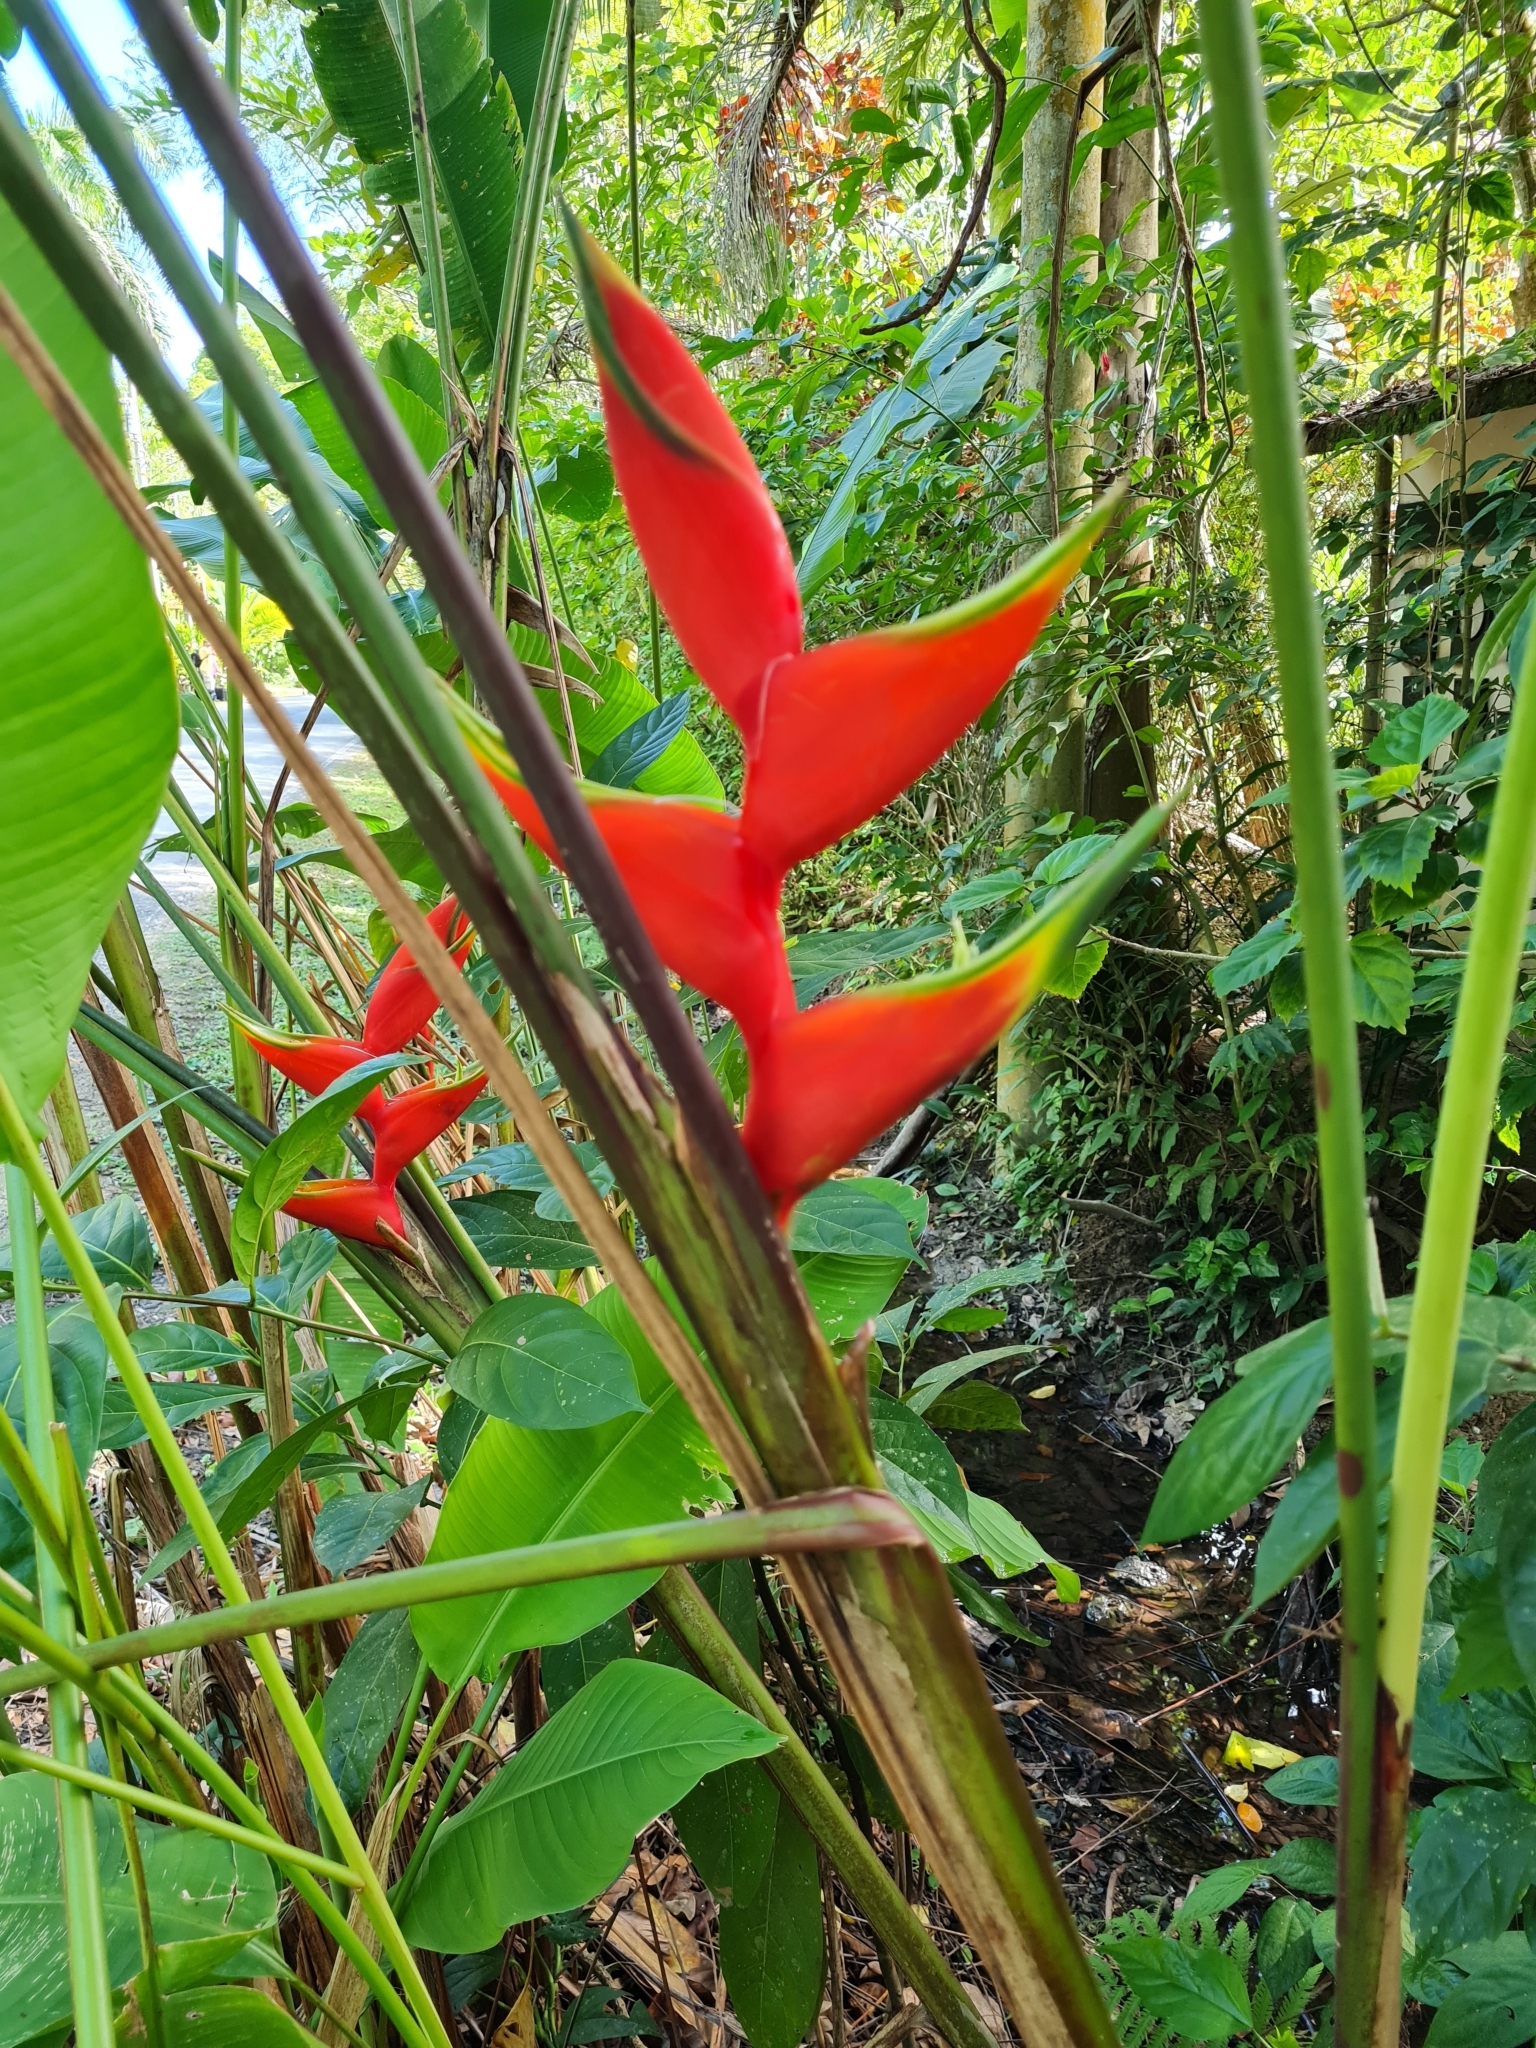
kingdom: Plantae
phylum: Tracheophyta
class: Liliopsida
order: Zingiberales
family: Heliconiaceae
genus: Heliconia
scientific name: Heliconia bihai
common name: Macaw flower
